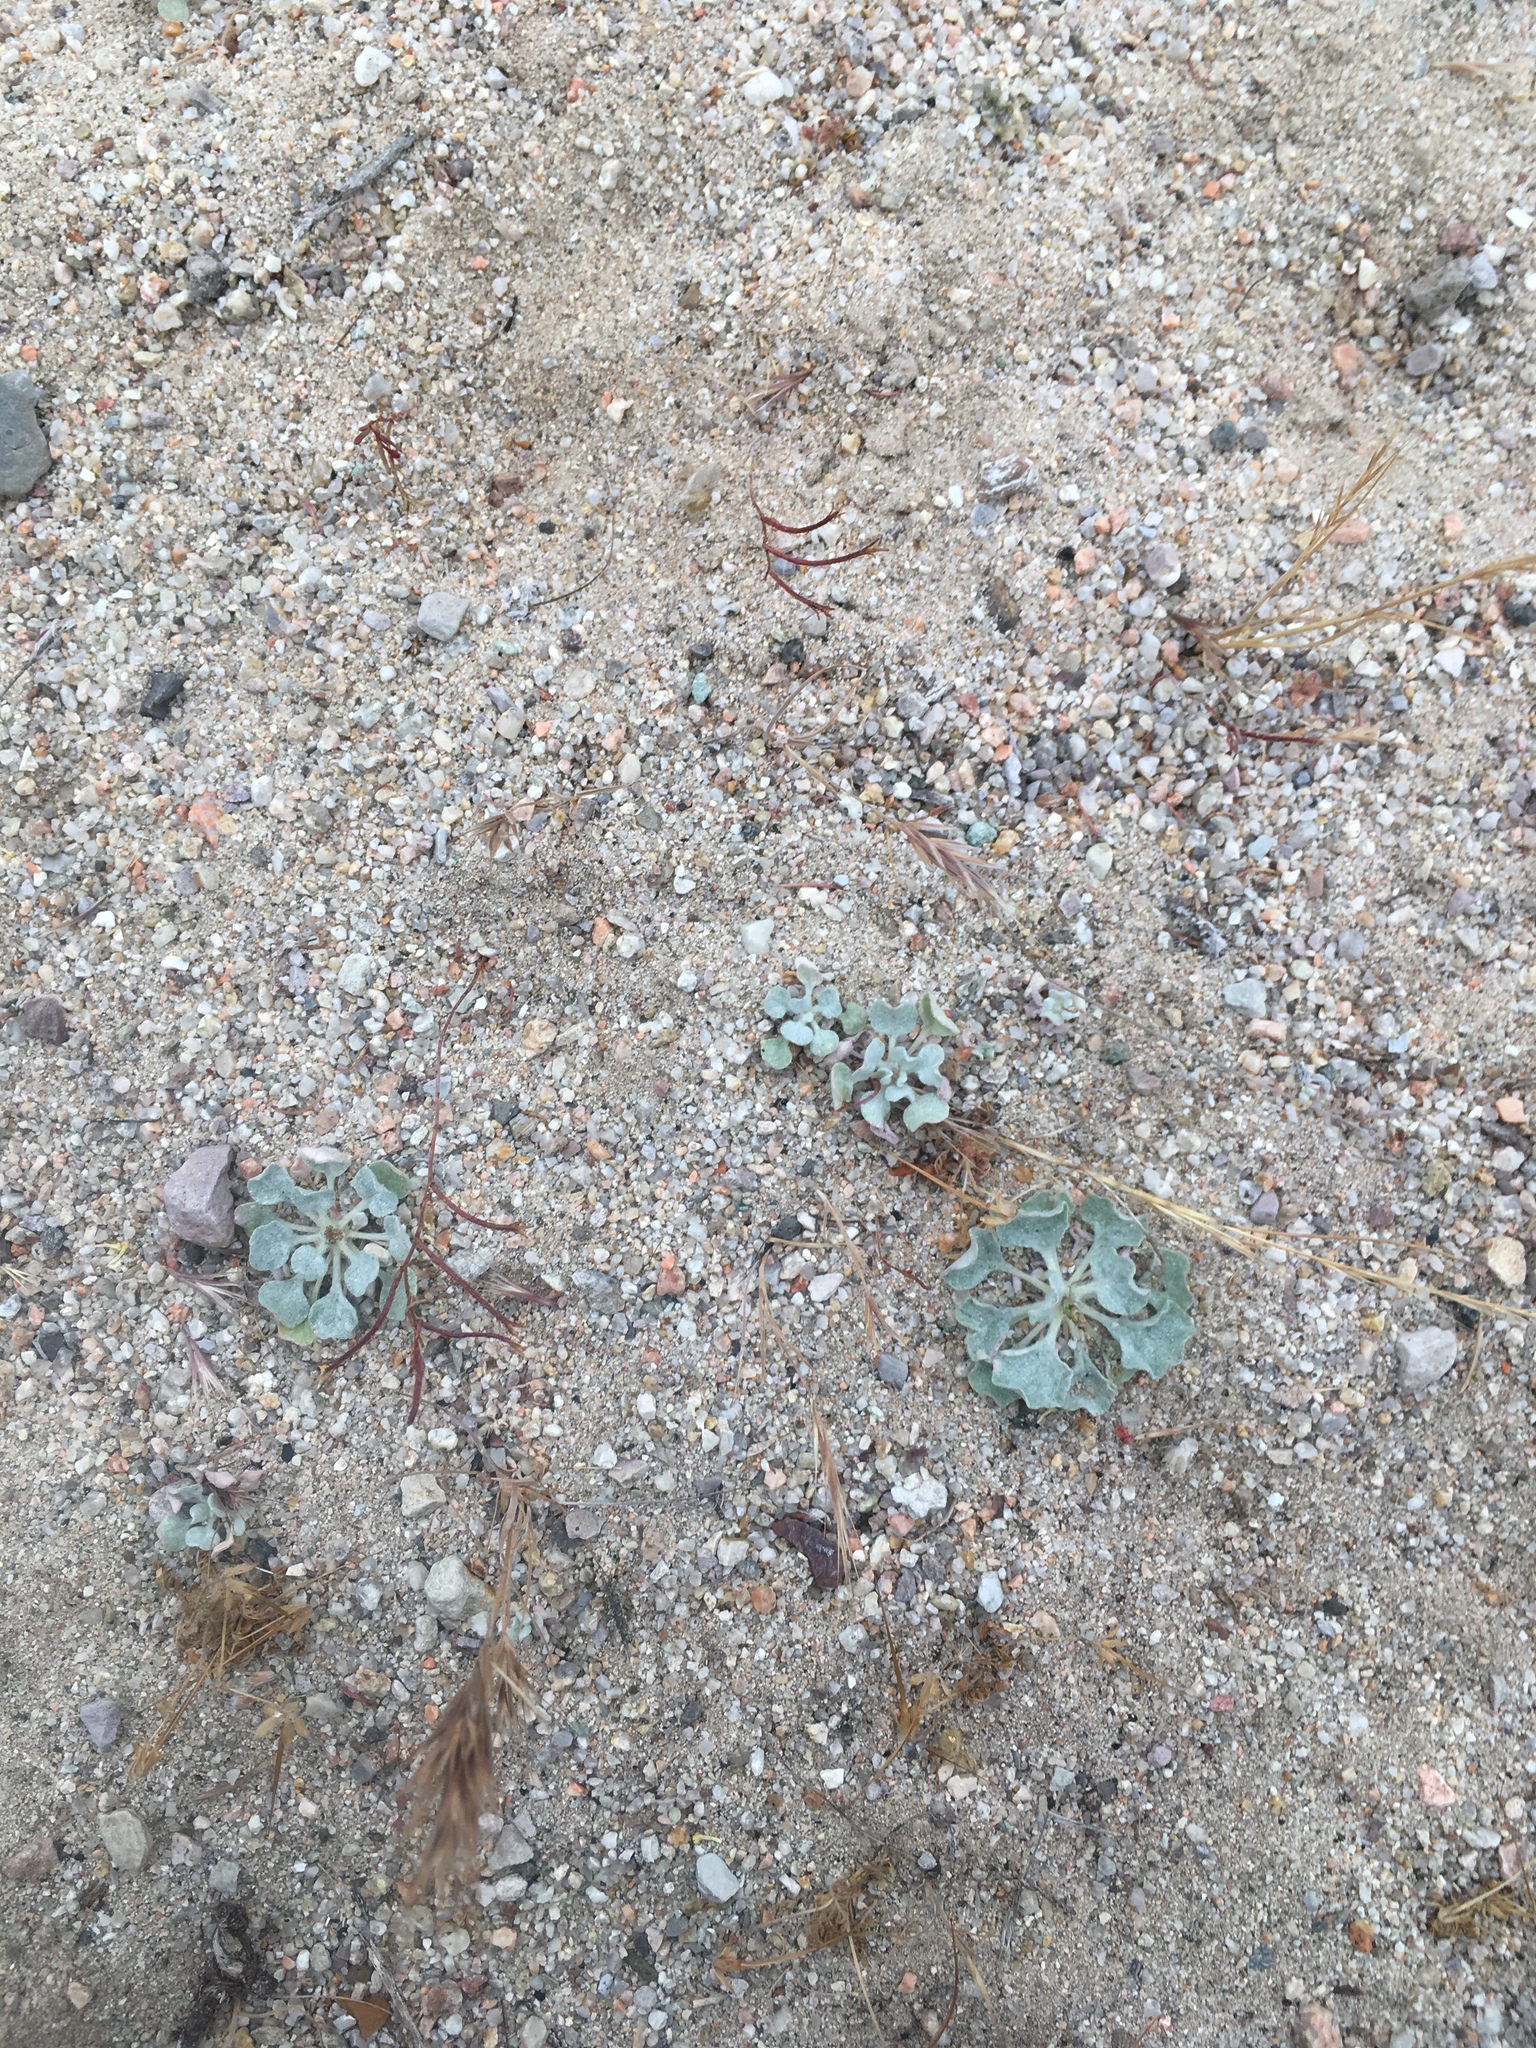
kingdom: Plantae
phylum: Tracheophyta
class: Magnoliopsida
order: Caryophyllales
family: Polygonaceae
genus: Eriogonum
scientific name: Eriogonum elegans
